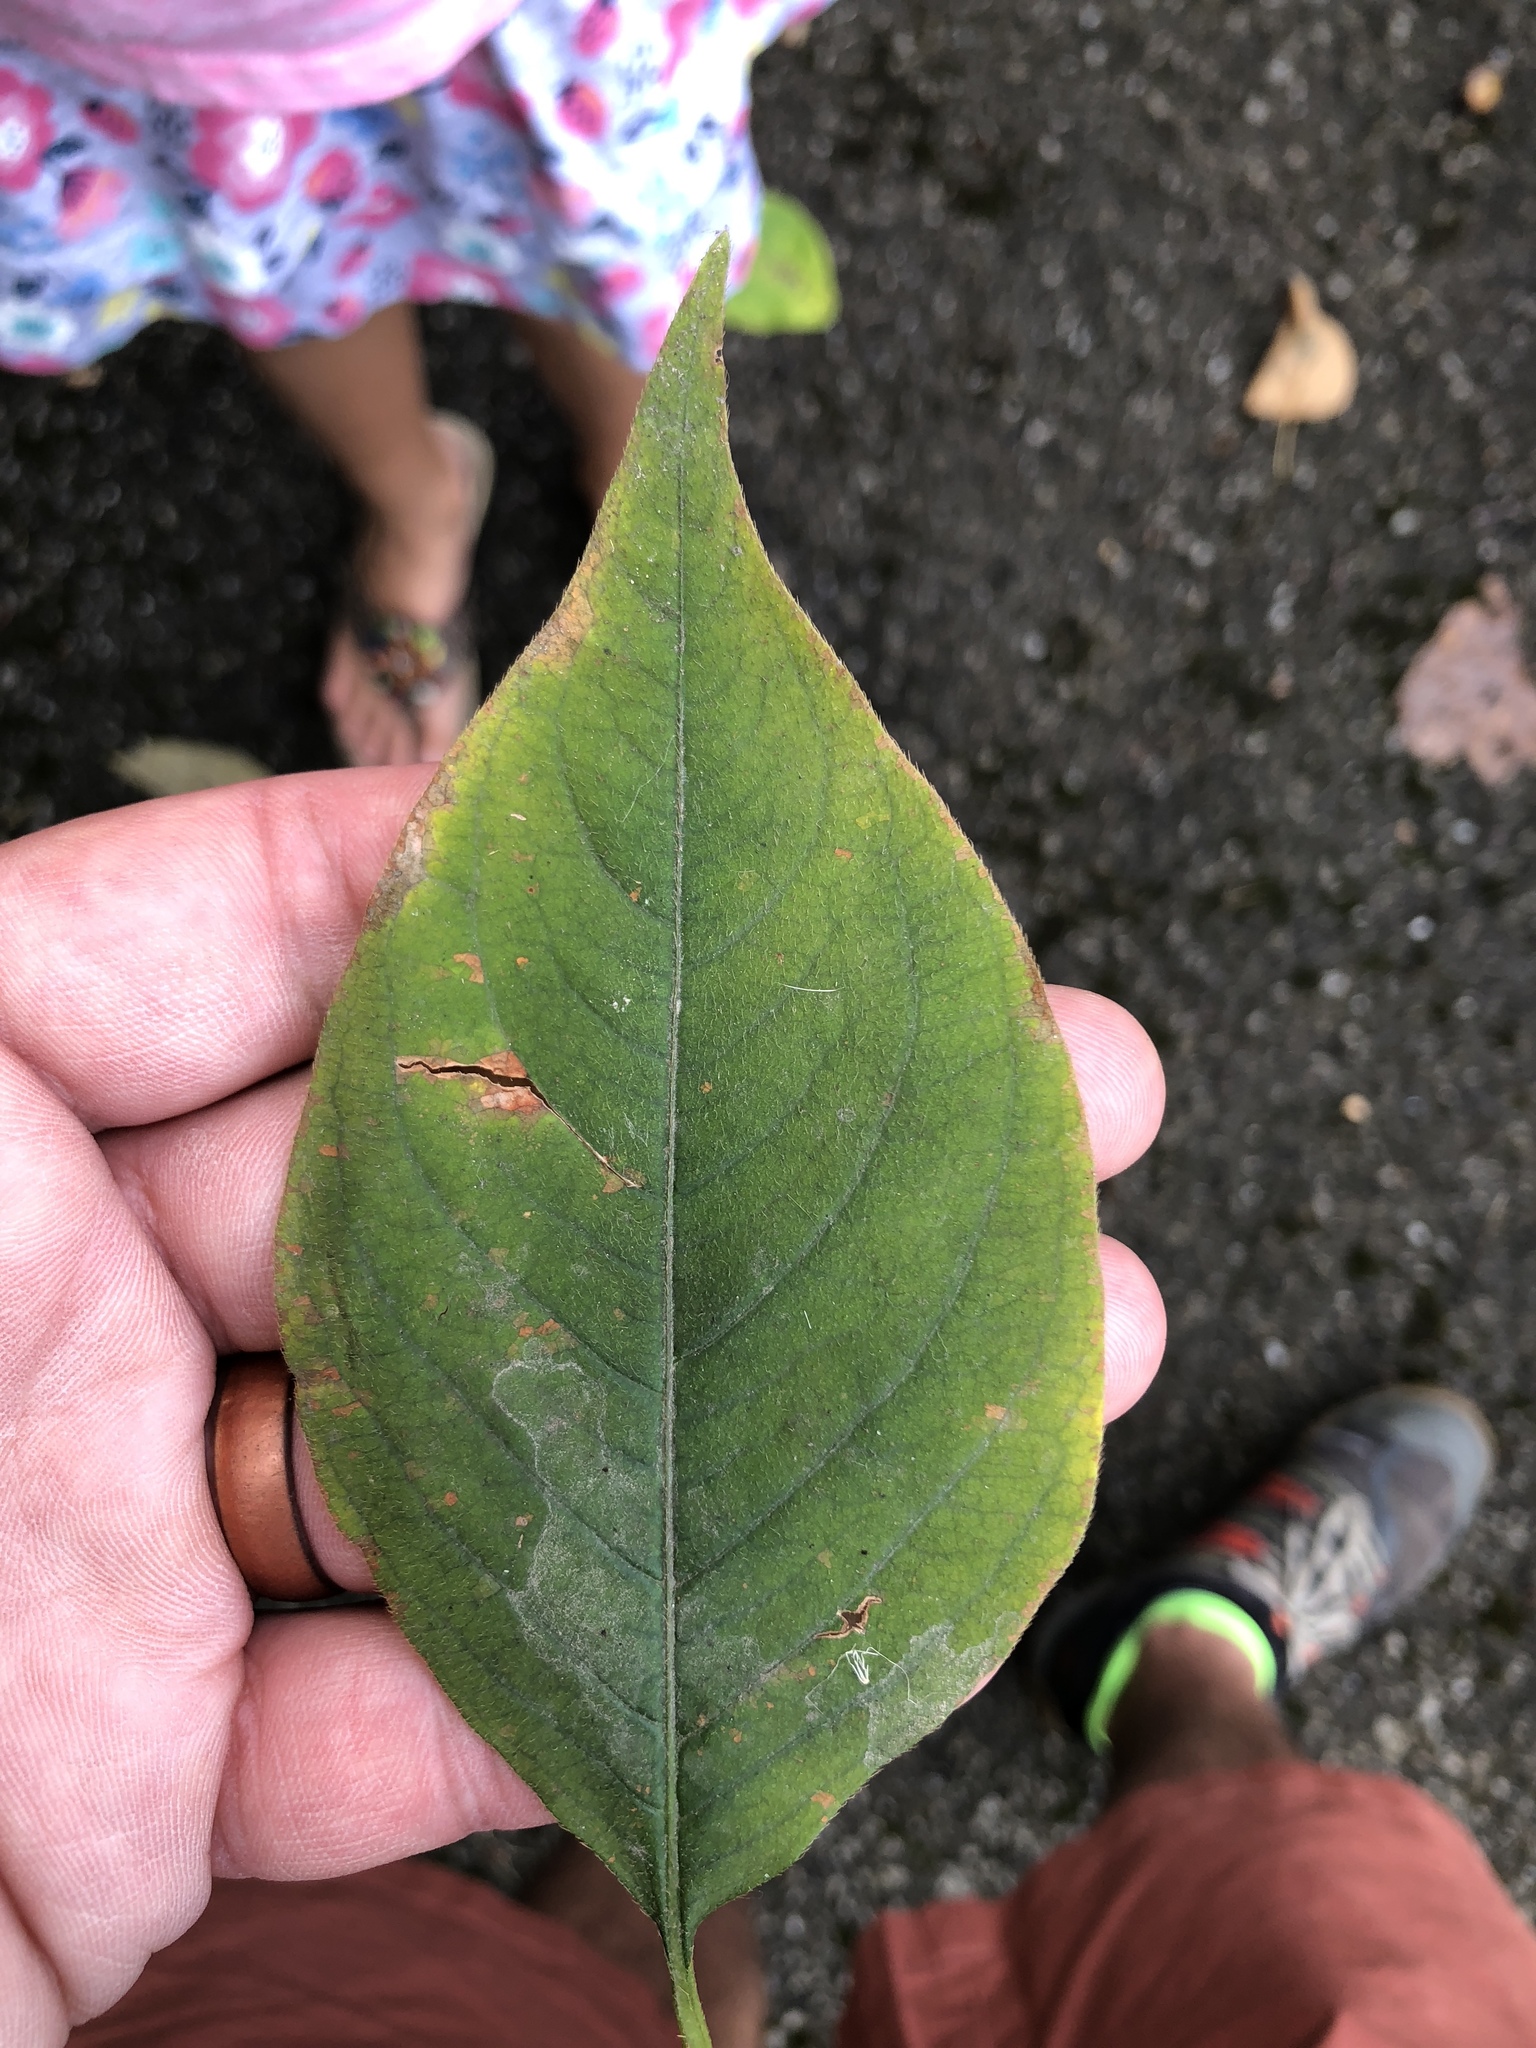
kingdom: Plantae
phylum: Tracheophyta
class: Magnoliopsida
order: Caryophyllales
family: Polygonaceae
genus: Persicaria
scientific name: Persicaria virginiana
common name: Jumpseed
